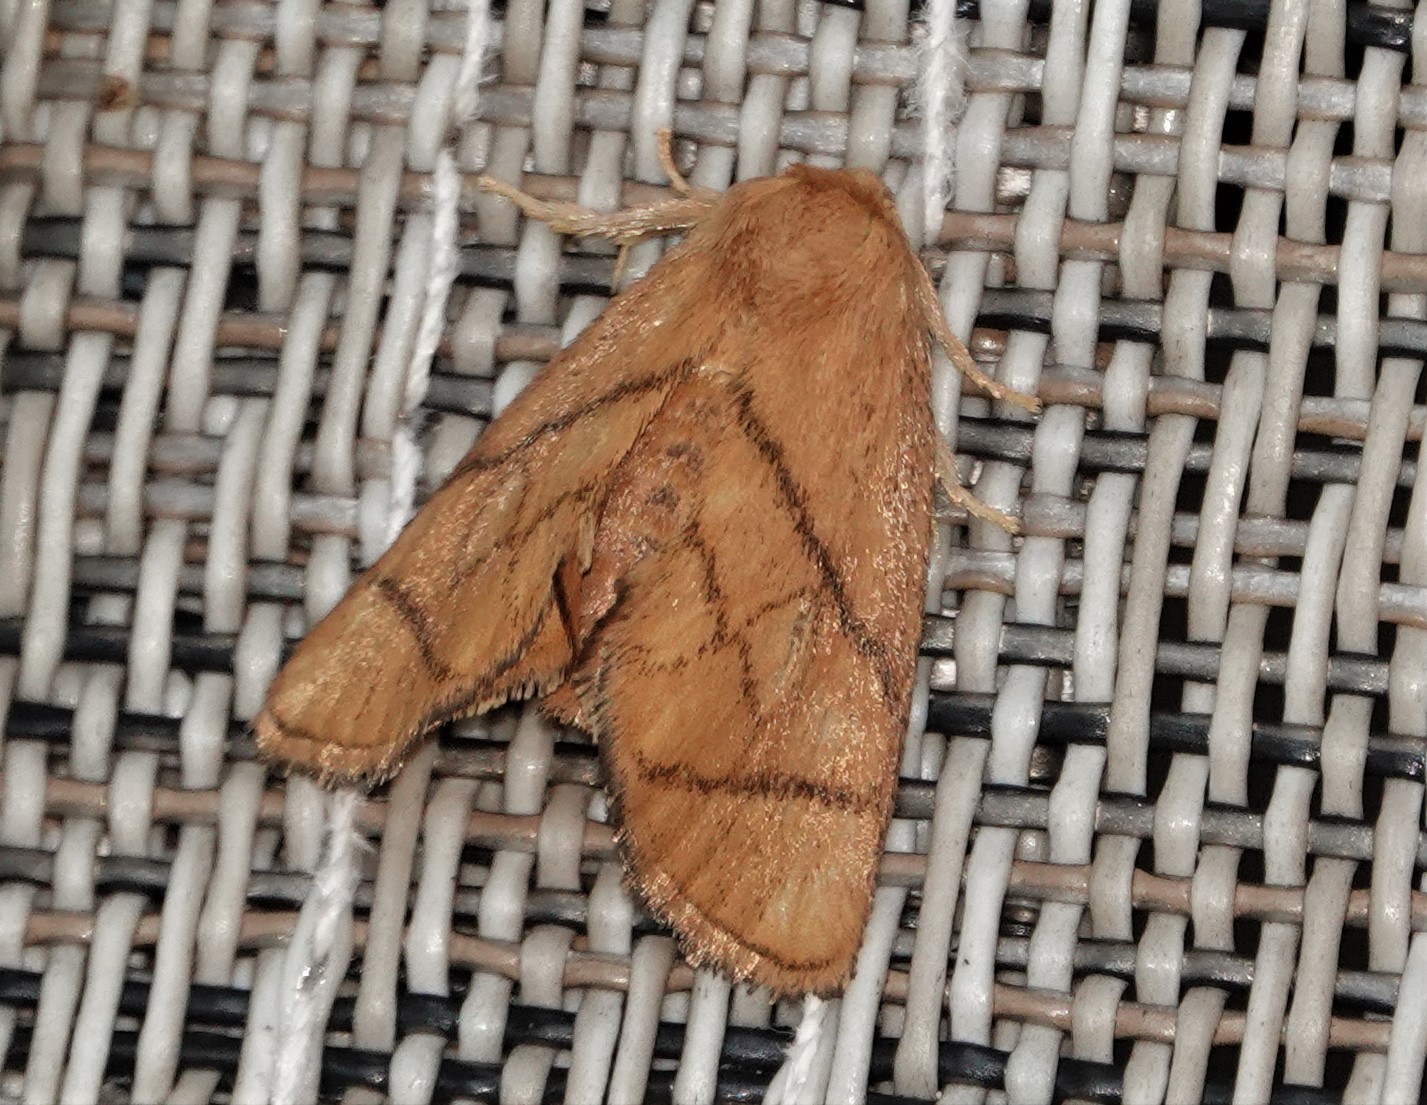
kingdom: Animalia
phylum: Arthropoda
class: Insecta
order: Lepidoptera
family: Limacodidae
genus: Apoda
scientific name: Apoda y-inversa
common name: Yellow-collared slug moth
